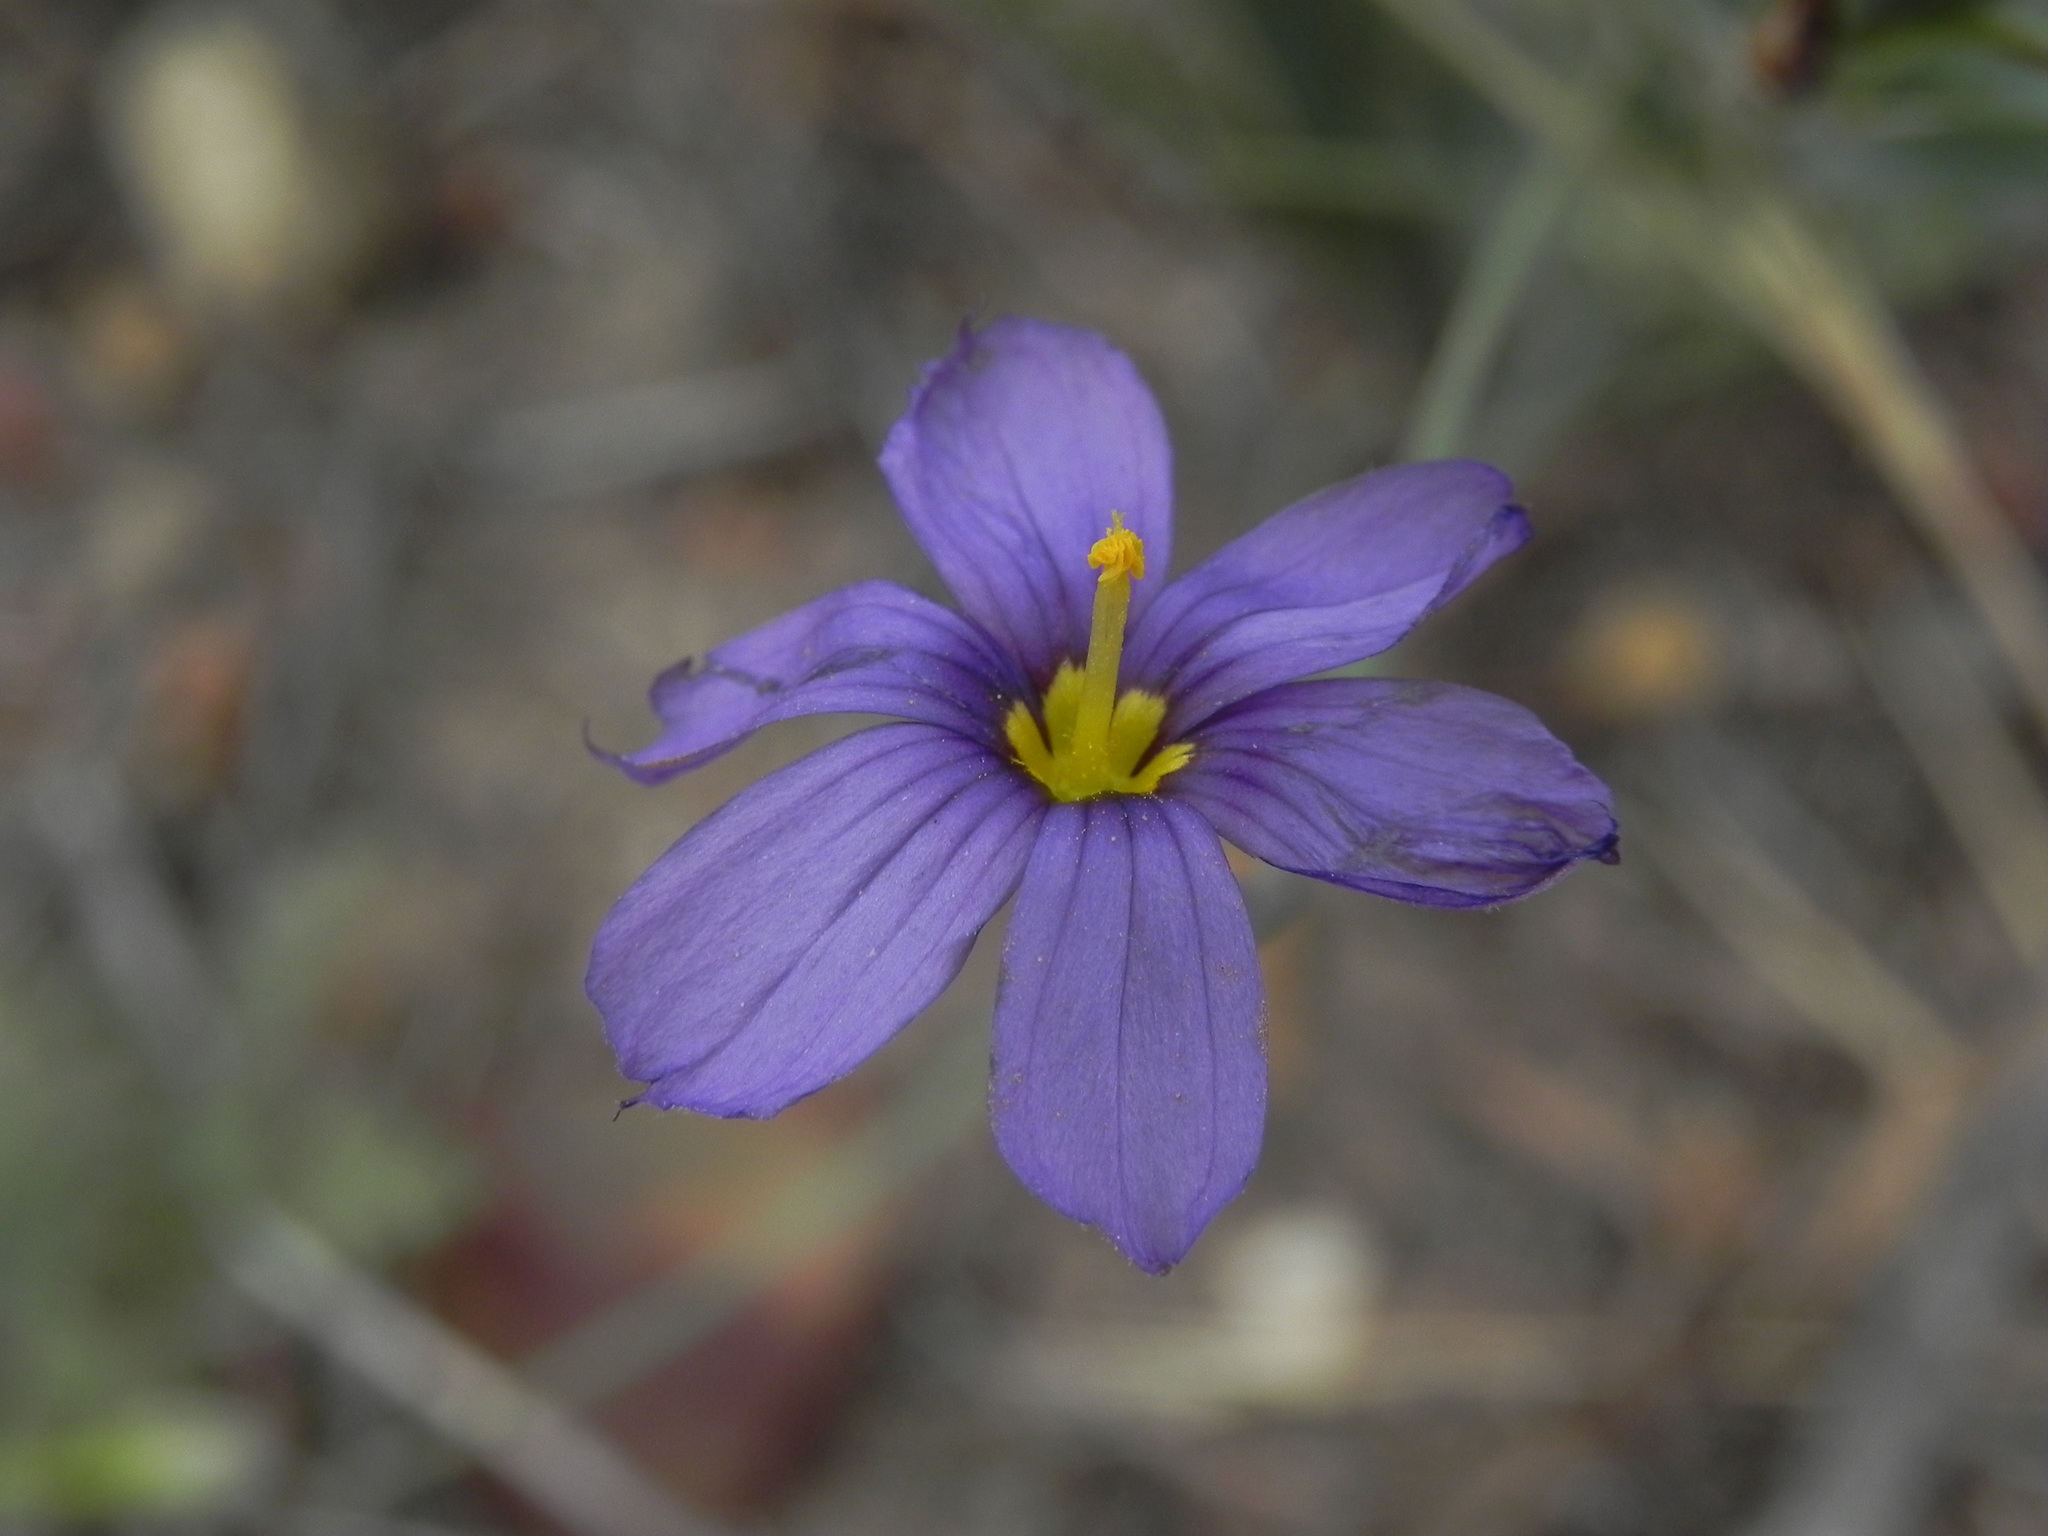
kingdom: Plantae
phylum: Tracheophyta
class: Liliopsida
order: Asparagales
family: Iridaceae
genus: Sisyrinchium
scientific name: Sisyrinchium bellum
